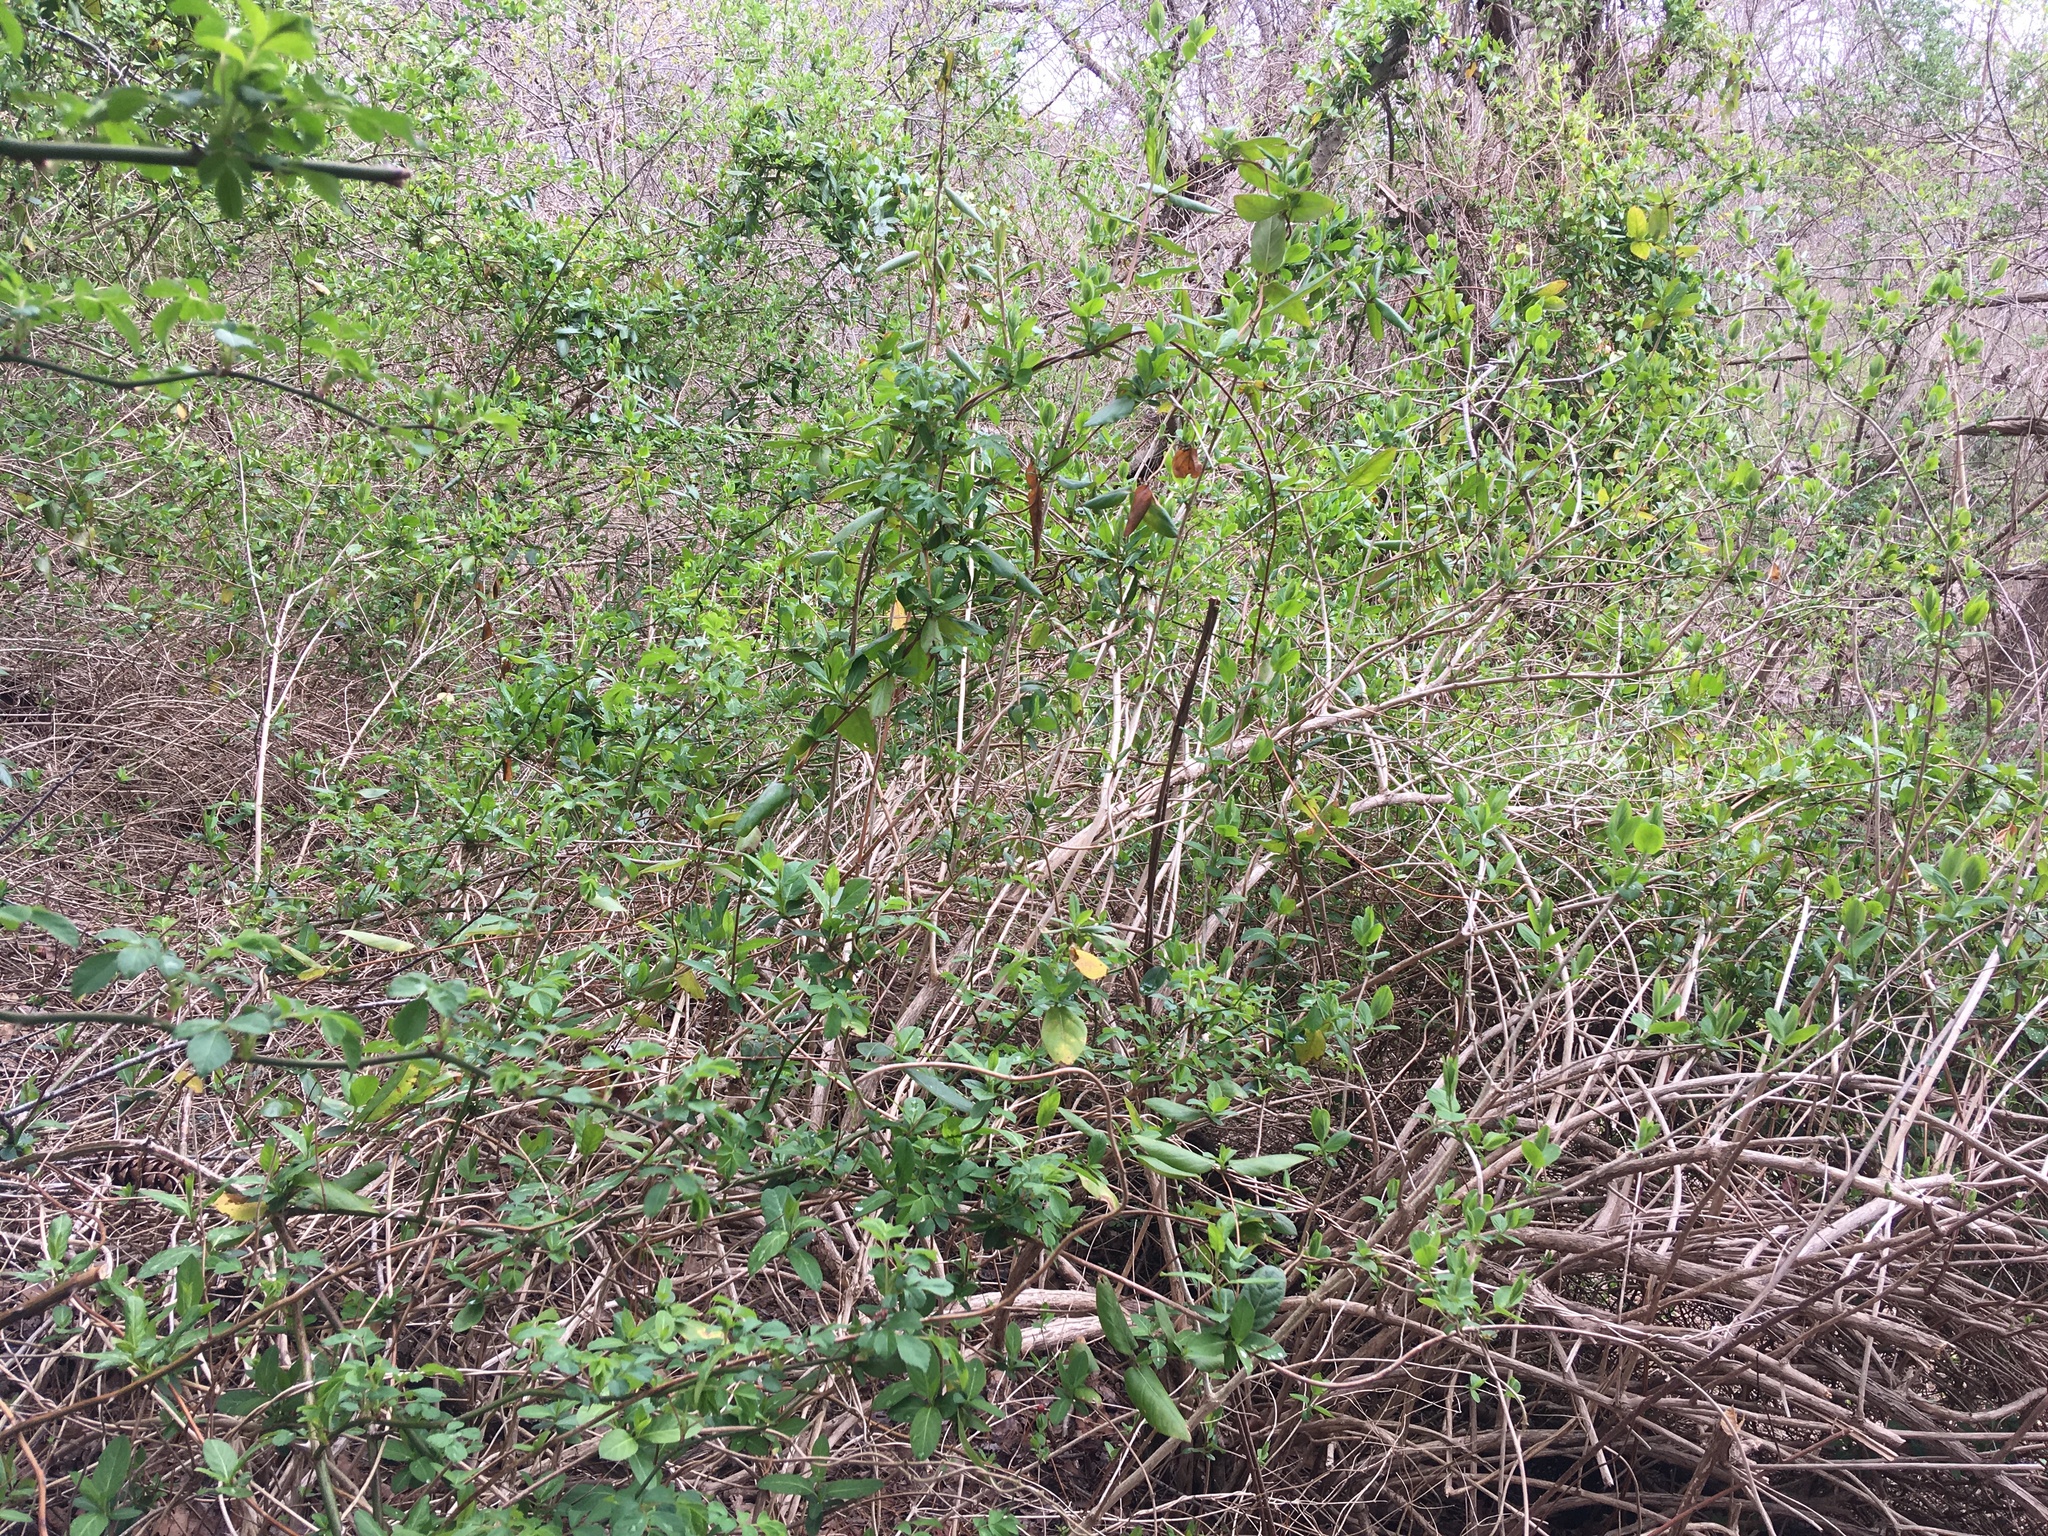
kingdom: Plantae
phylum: Tracheophyta
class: Magnoliopsida
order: Dipsacales
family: Caprifoliaceae
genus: Lonicera
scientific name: Lonicera japonica
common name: Japanese honeysuckle
